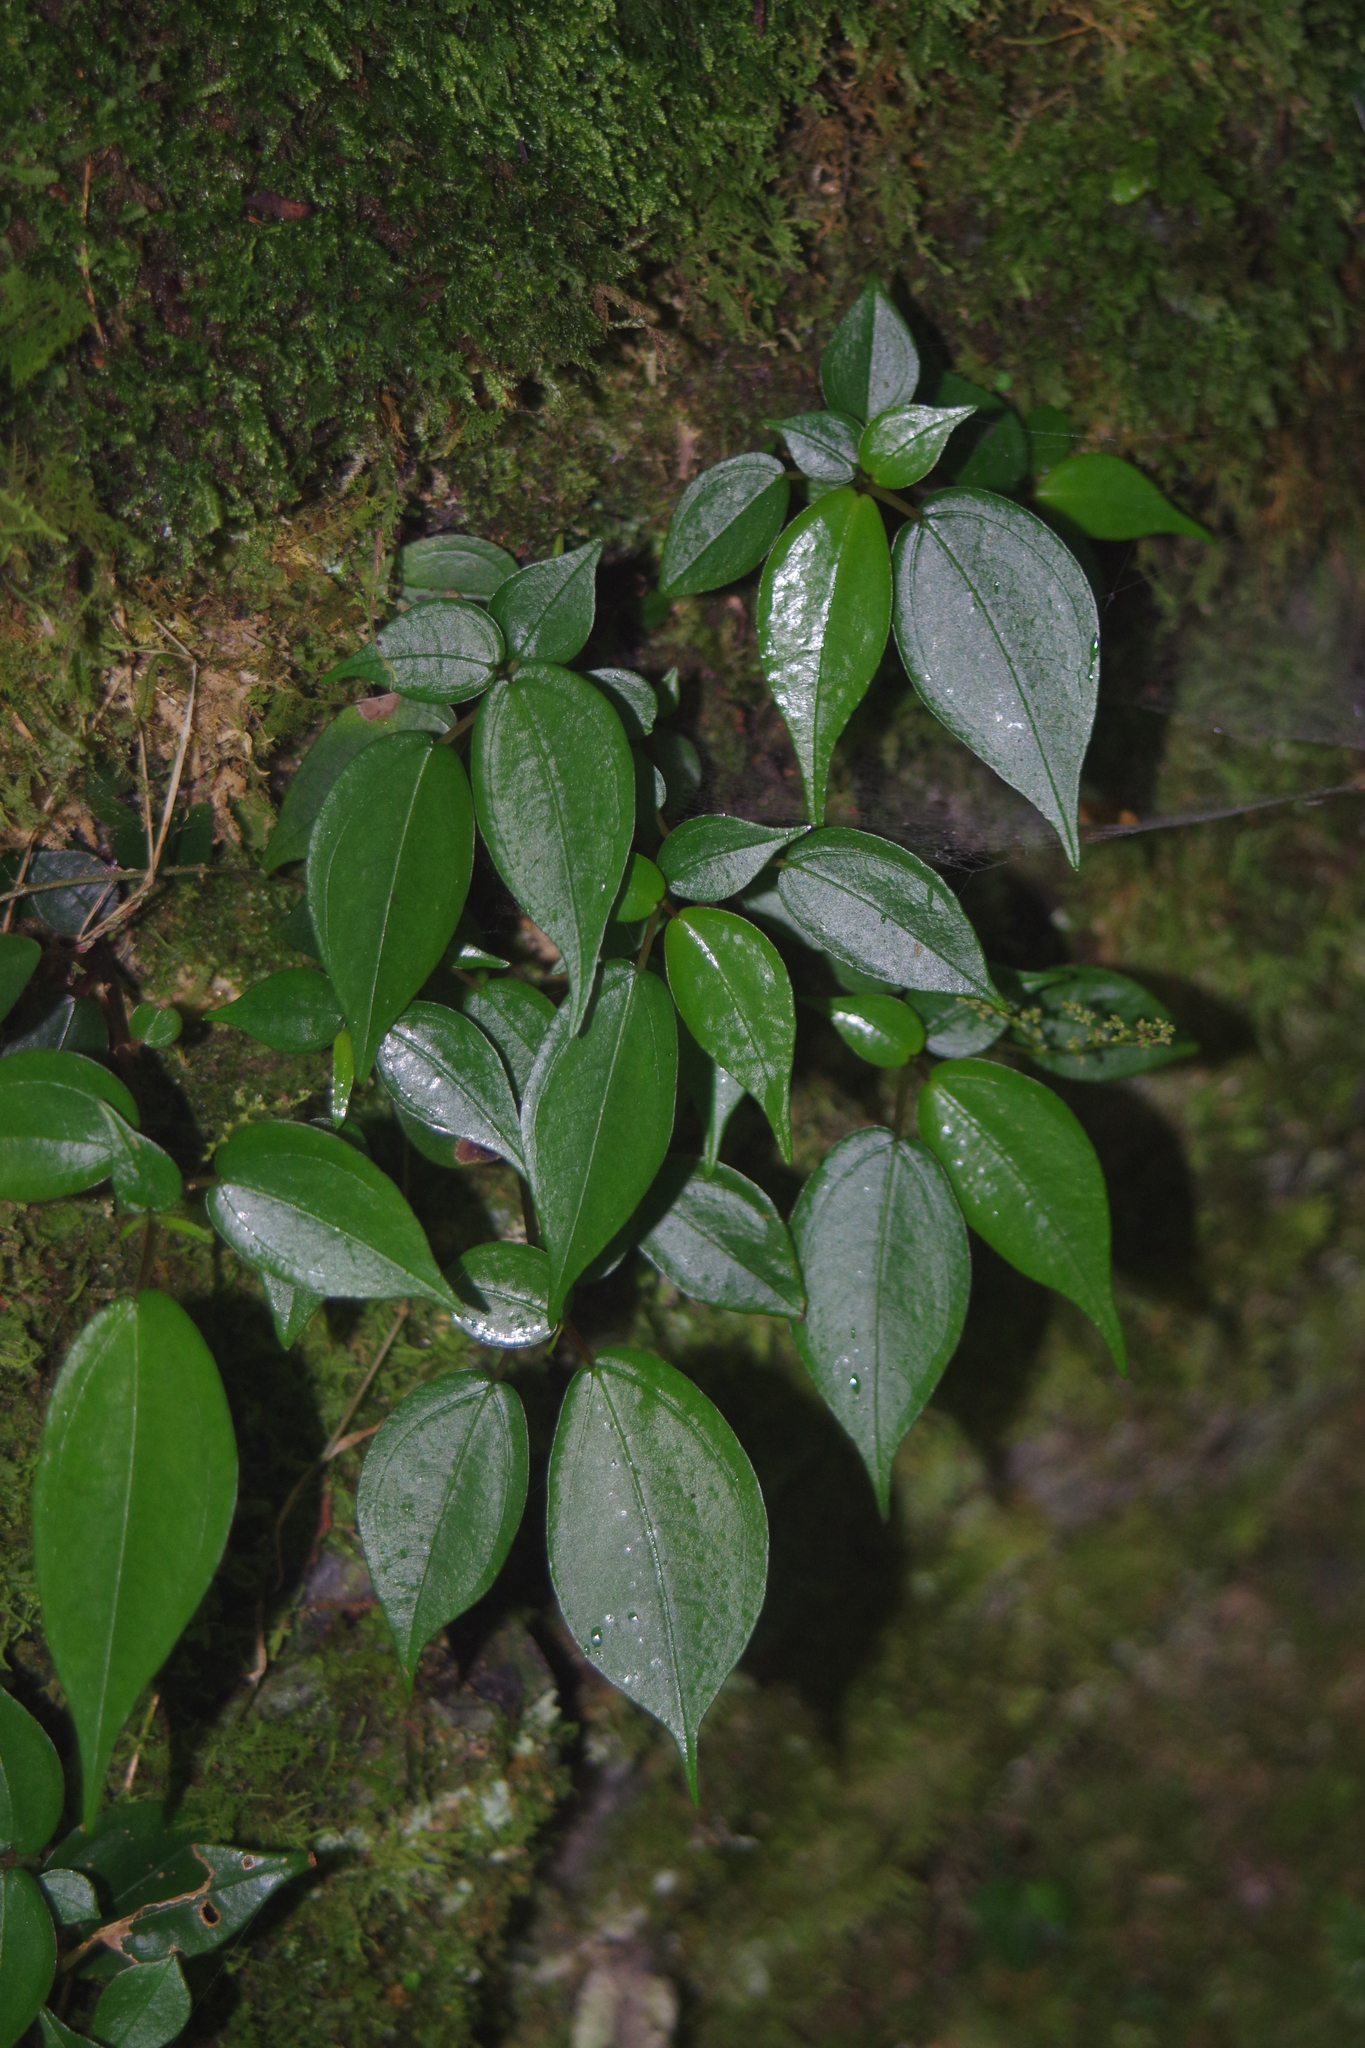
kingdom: Plantae
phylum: Tracheophyta
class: Magnoliopsida
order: Rosales
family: Urticaceae
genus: Pilea
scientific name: Pilea plataniflora
